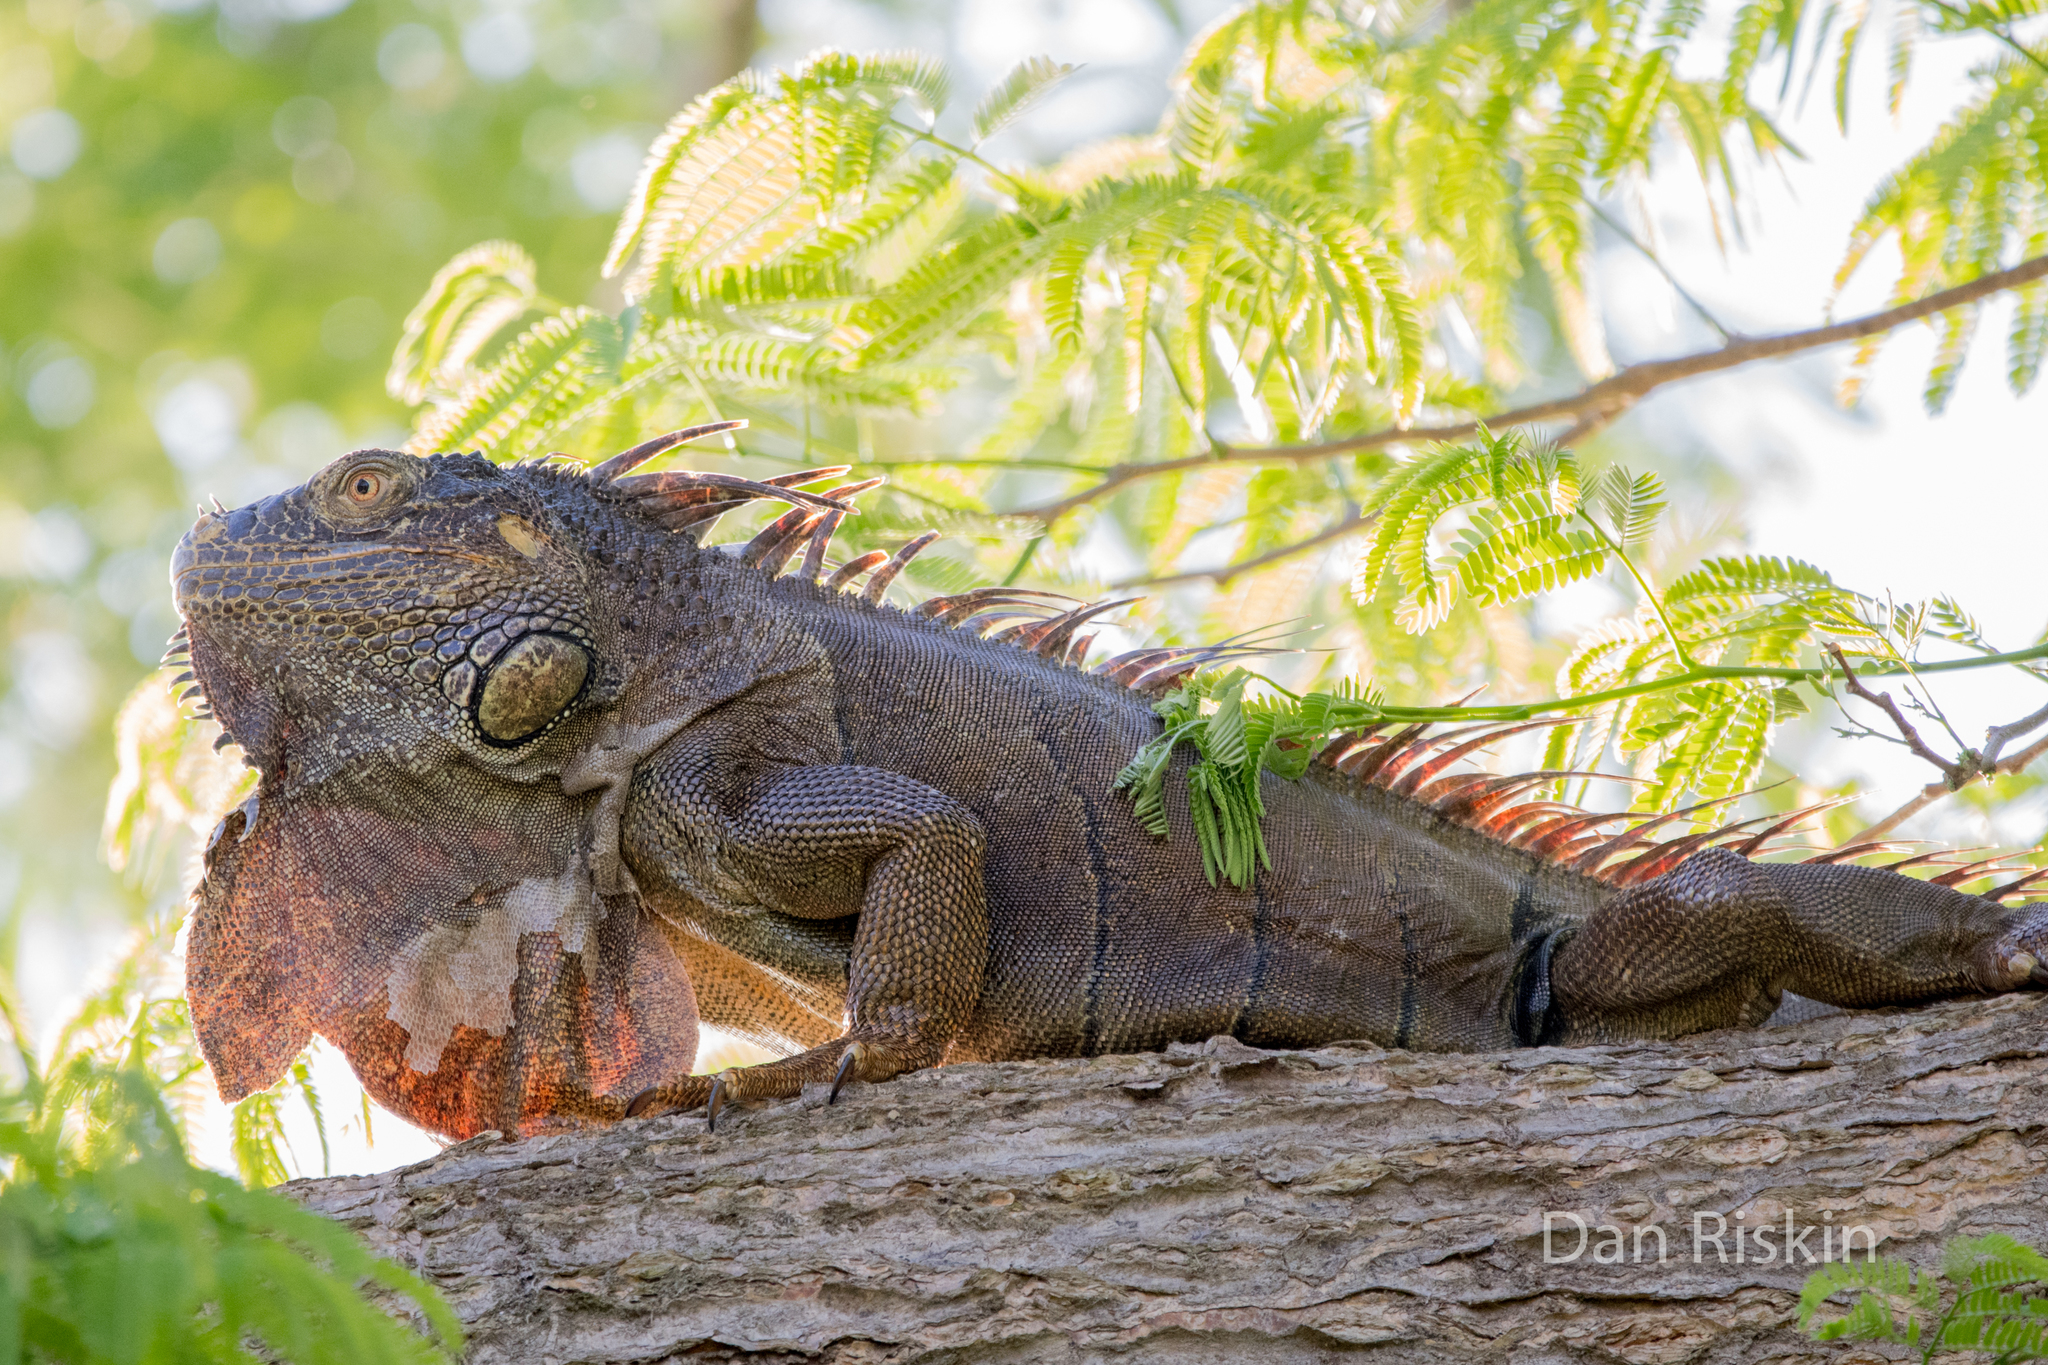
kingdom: Animalia
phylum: Chordata
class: Squamata
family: Iguanidae
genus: Iguana
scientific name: Iguana iguana
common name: Green iguana
